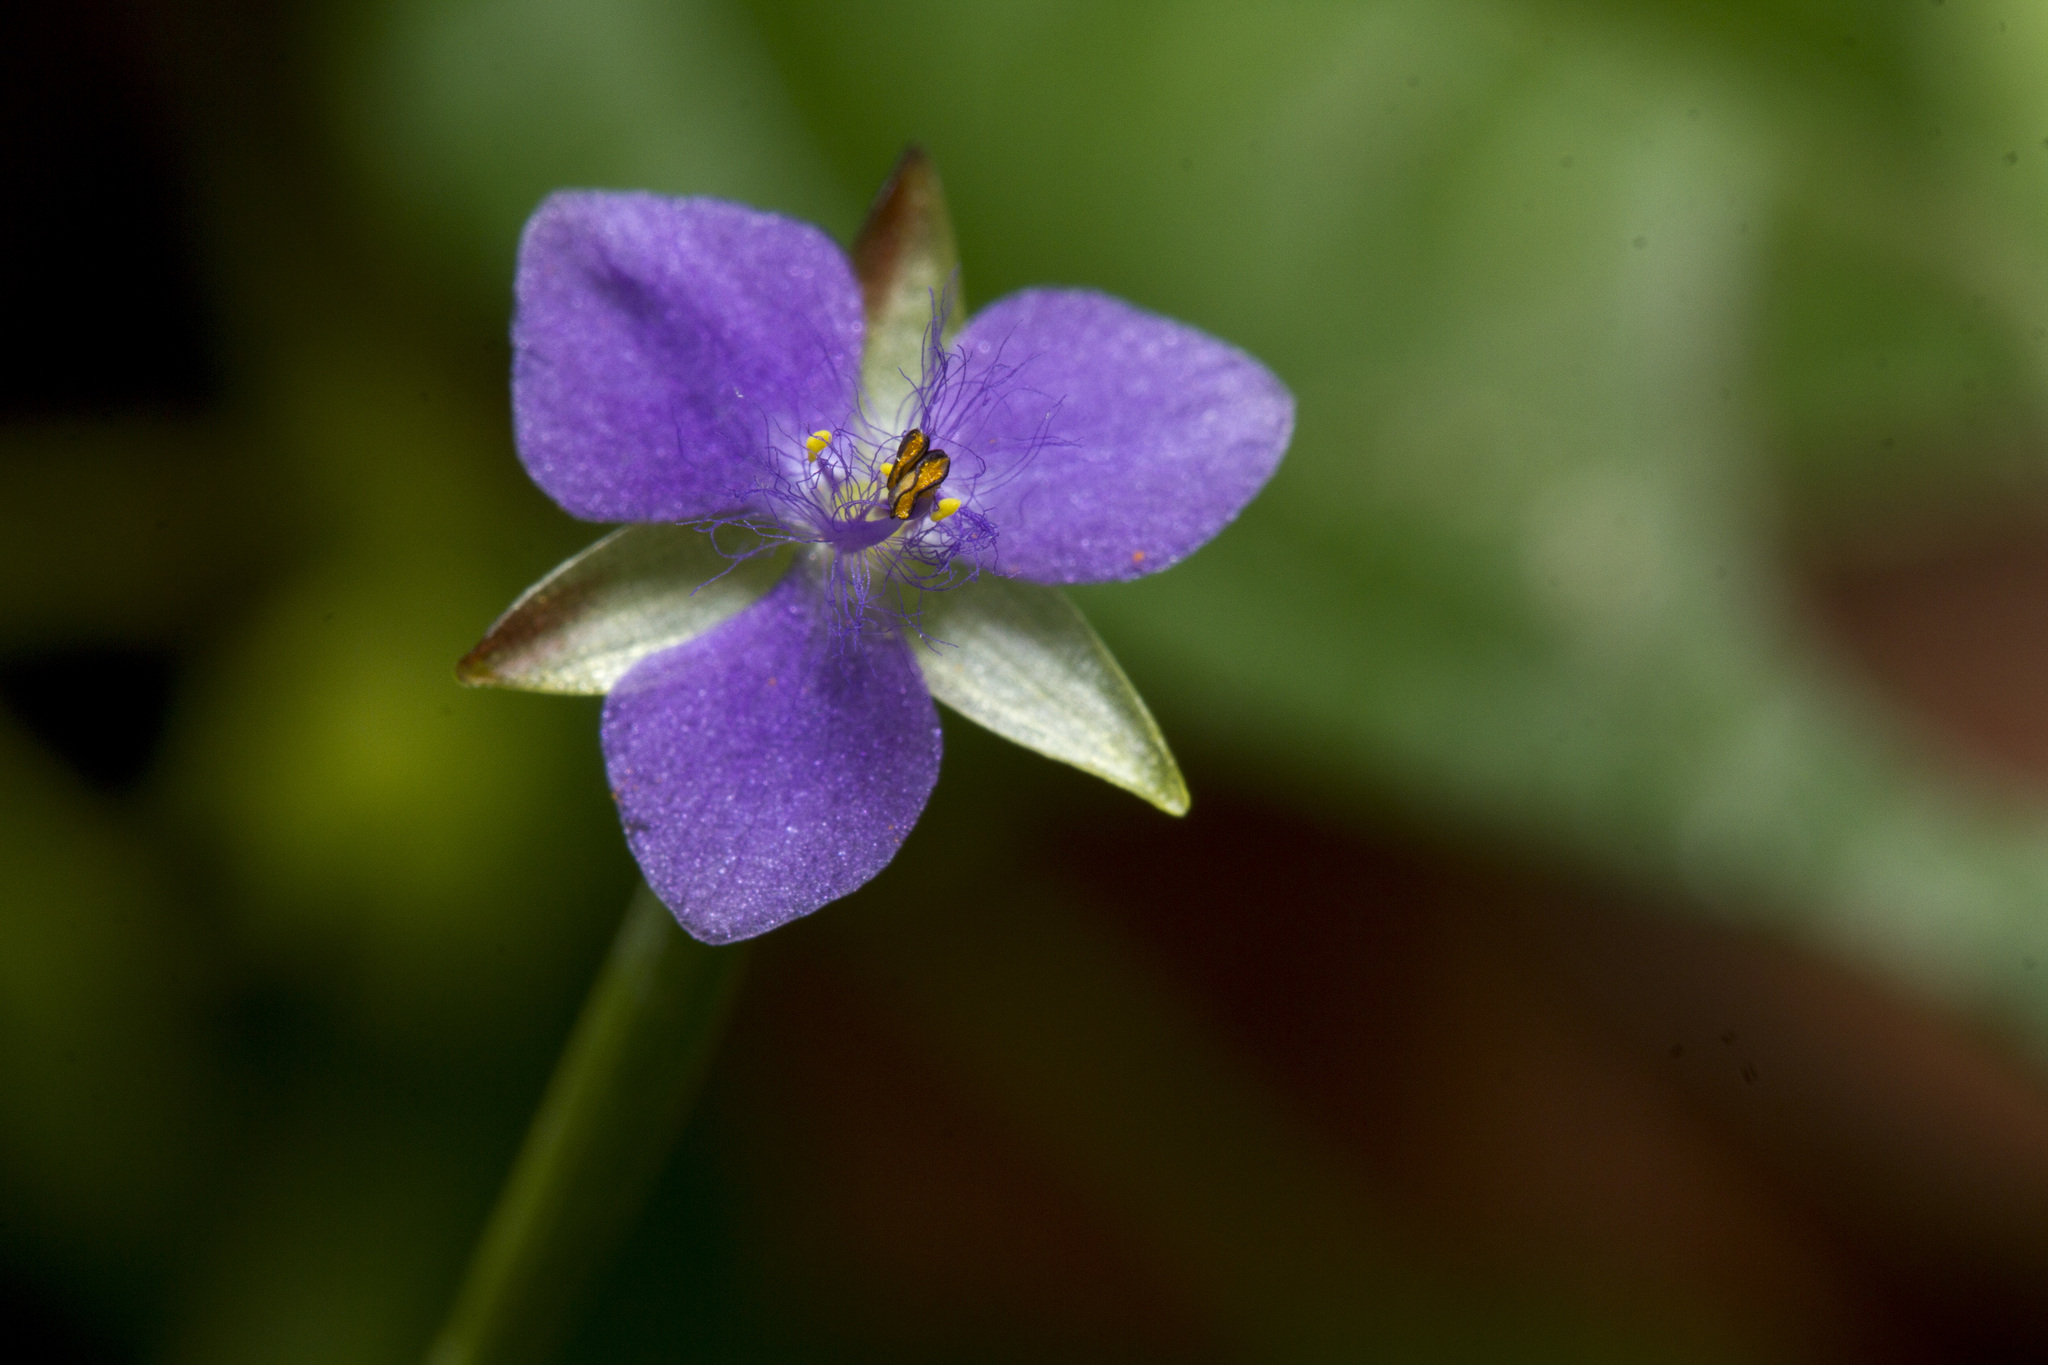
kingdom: Plantae
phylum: Tracheophyta
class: Liliopsida
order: Commelinales
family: Commelinaceae
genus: Murdannia
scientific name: Murdannia vaginata
